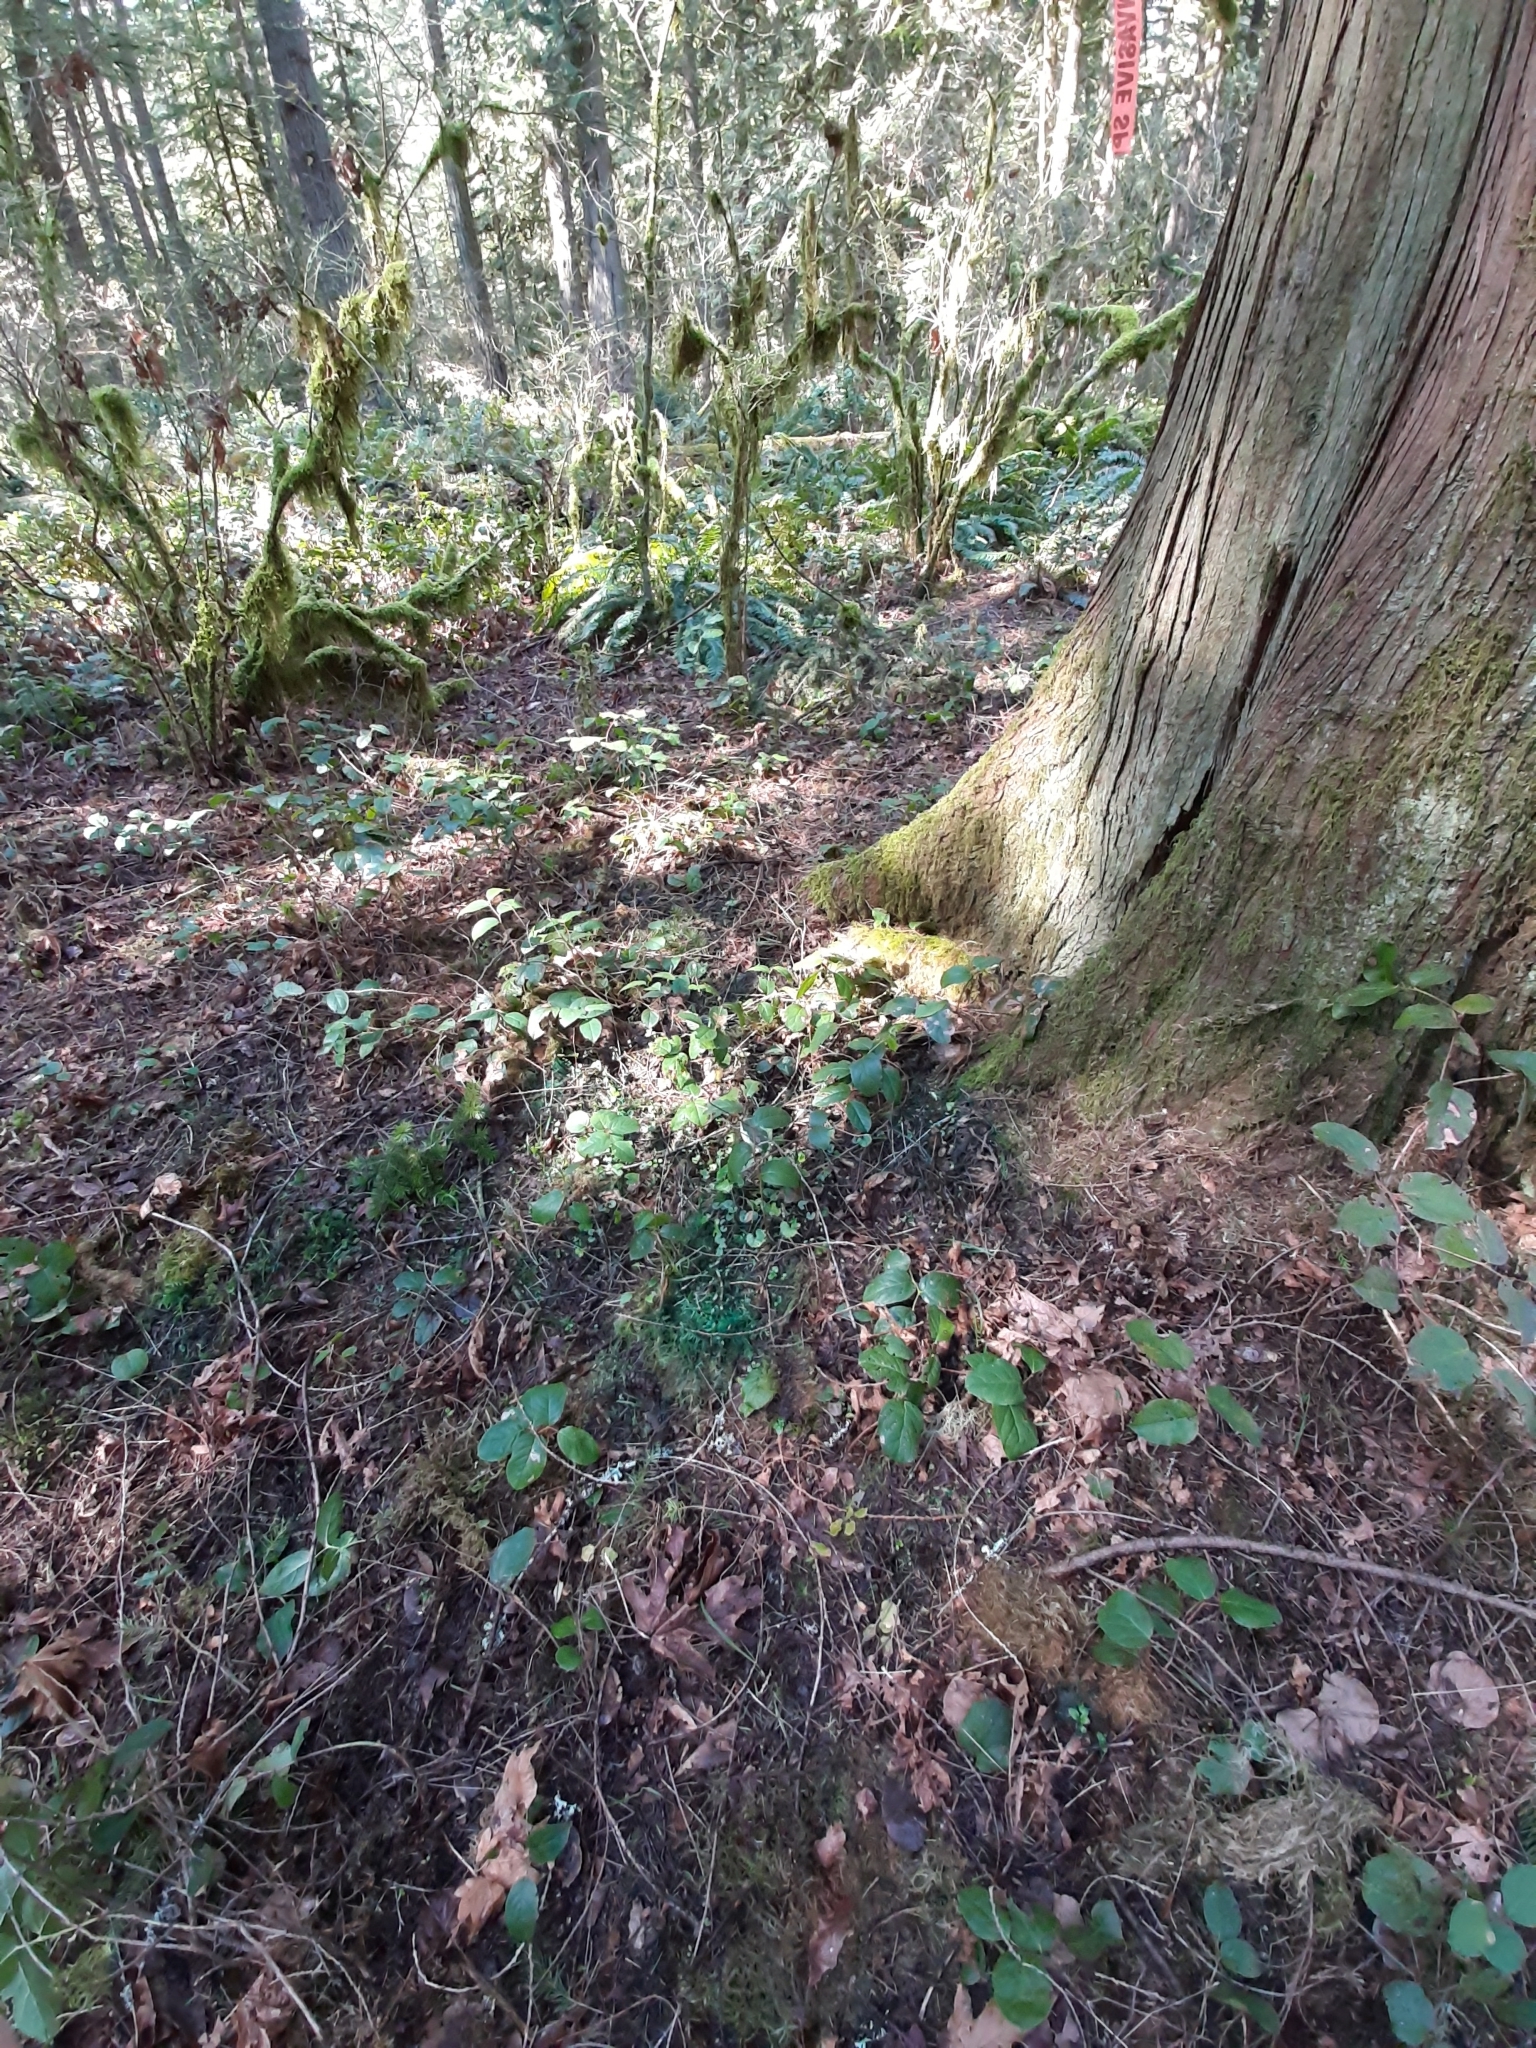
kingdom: Plantae
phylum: Tracheophyta
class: Magnoliopsida
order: Ericales
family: Ericaceae
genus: Gaultheria
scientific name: Gaultheria shallon
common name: Shallon
